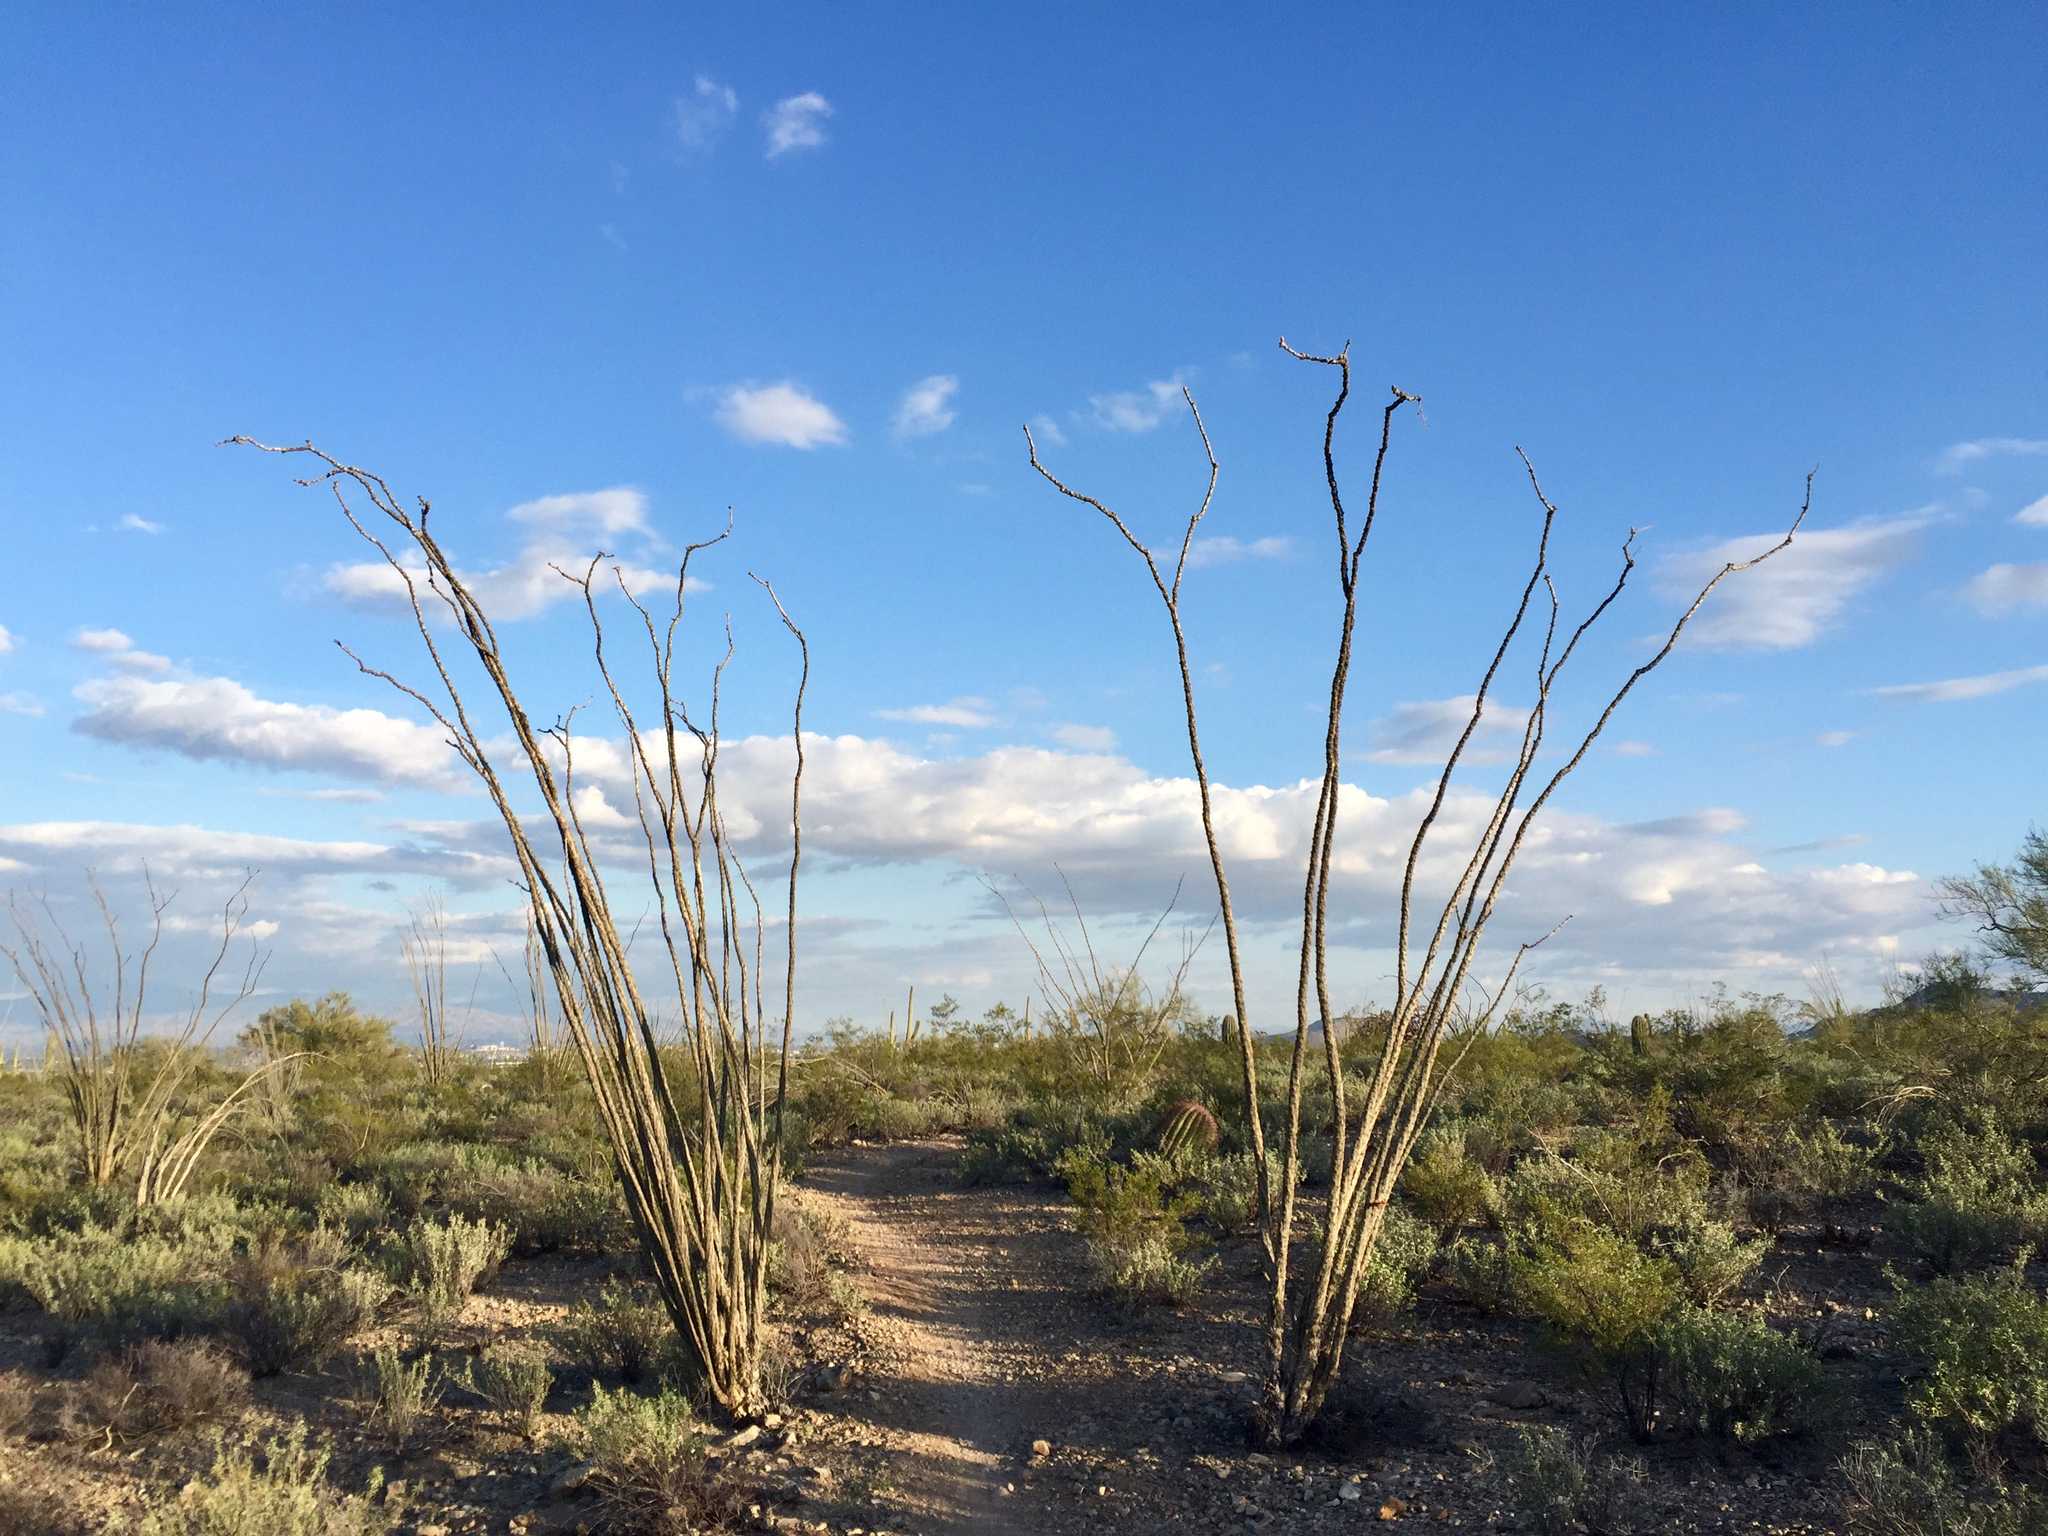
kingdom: Plantae
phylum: Tracheophyta
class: Magnoliopsida
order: Ericales
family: Fouquieriaceae
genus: Fouquieria
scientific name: Fouquieria splendens
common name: Vine-cactus
